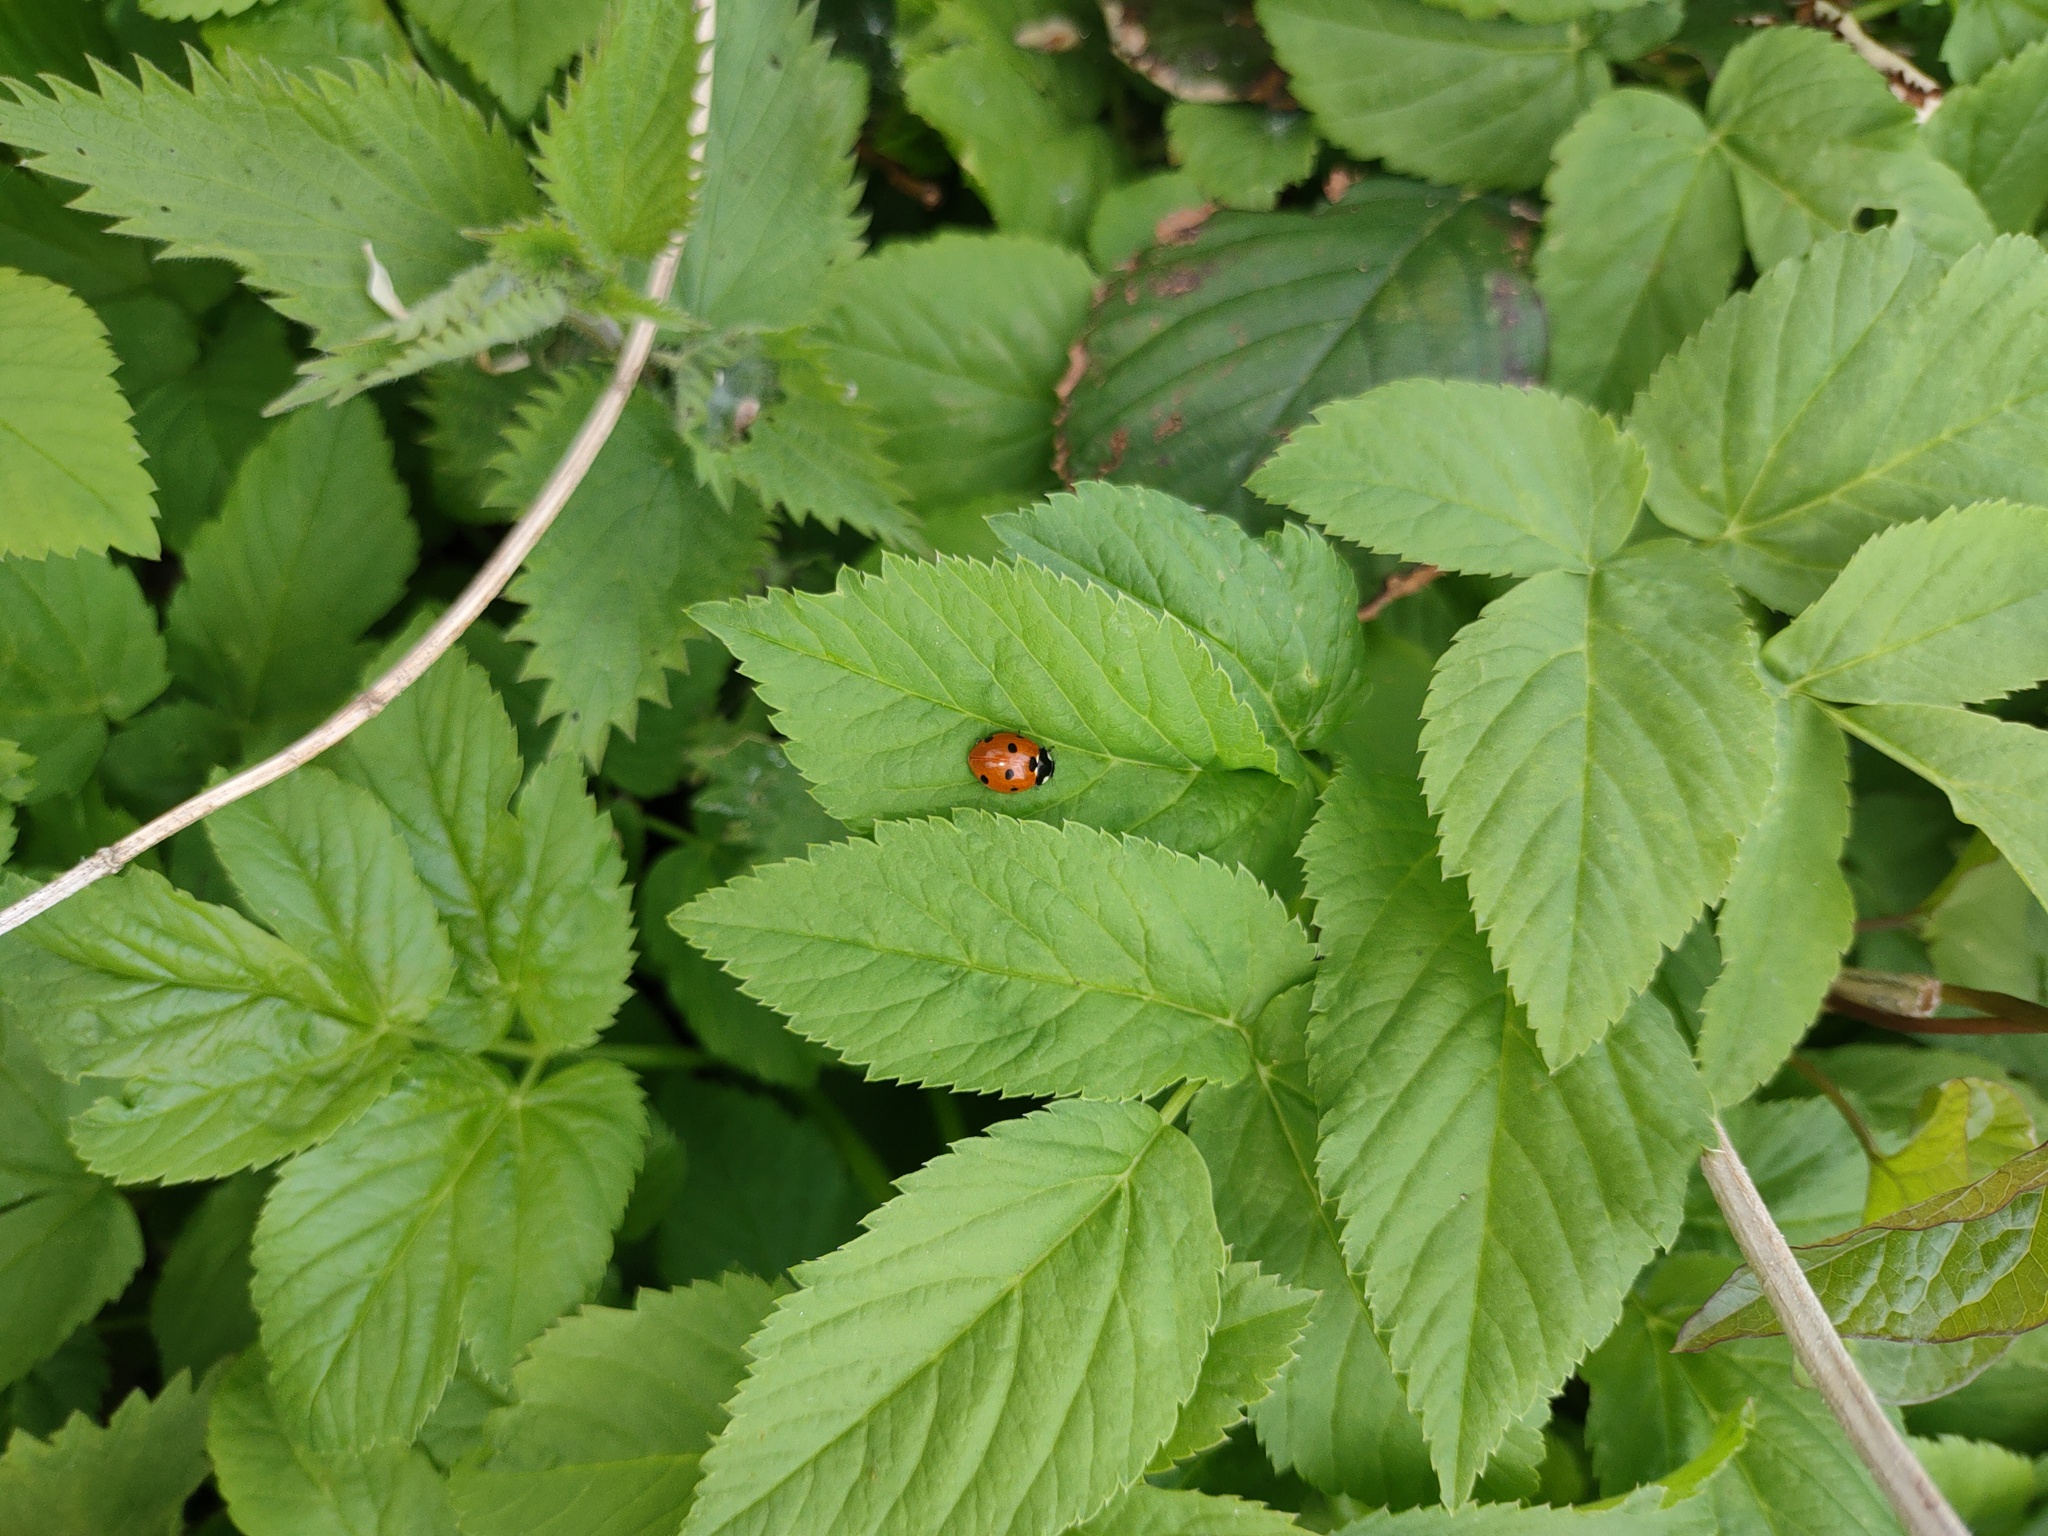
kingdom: Animalia
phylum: Arthropoda
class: Insecta
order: Coleoptera
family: Coccinellidae
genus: Coccinella
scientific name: Coccinella septempunctata
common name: Sevenspotted lady beetle
